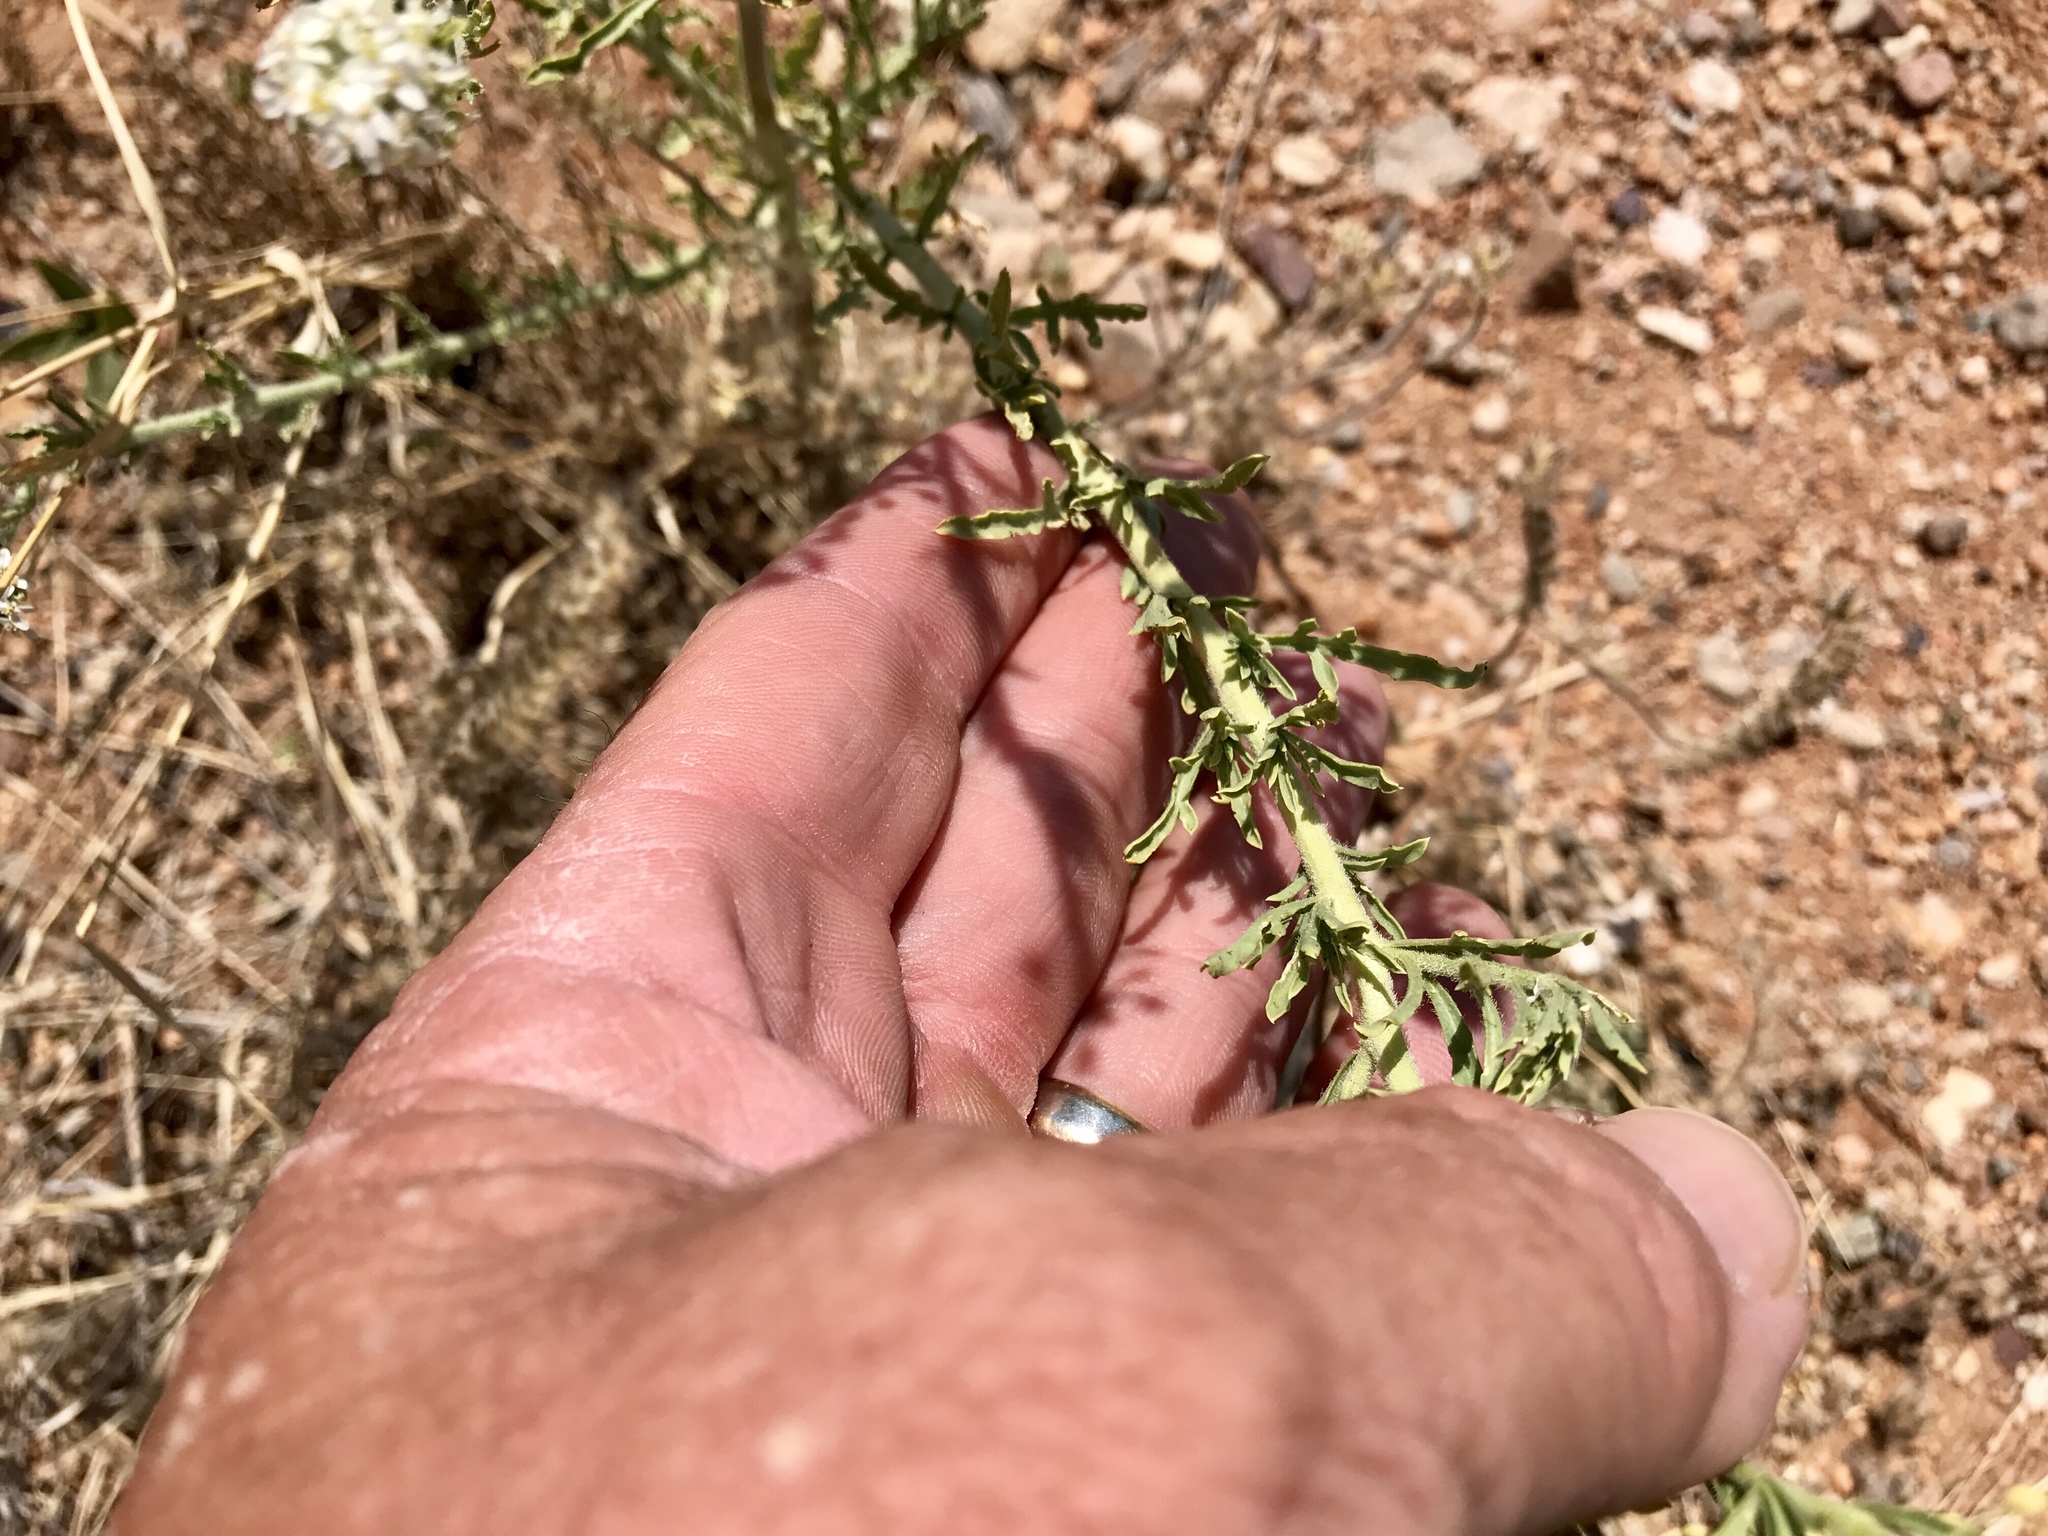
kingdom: Plantae
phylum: Tracheophyta
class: Magnoliopsida
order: Brassicales
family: Brassicaceae
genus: Lepidium
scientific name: Lepidium thurberi
